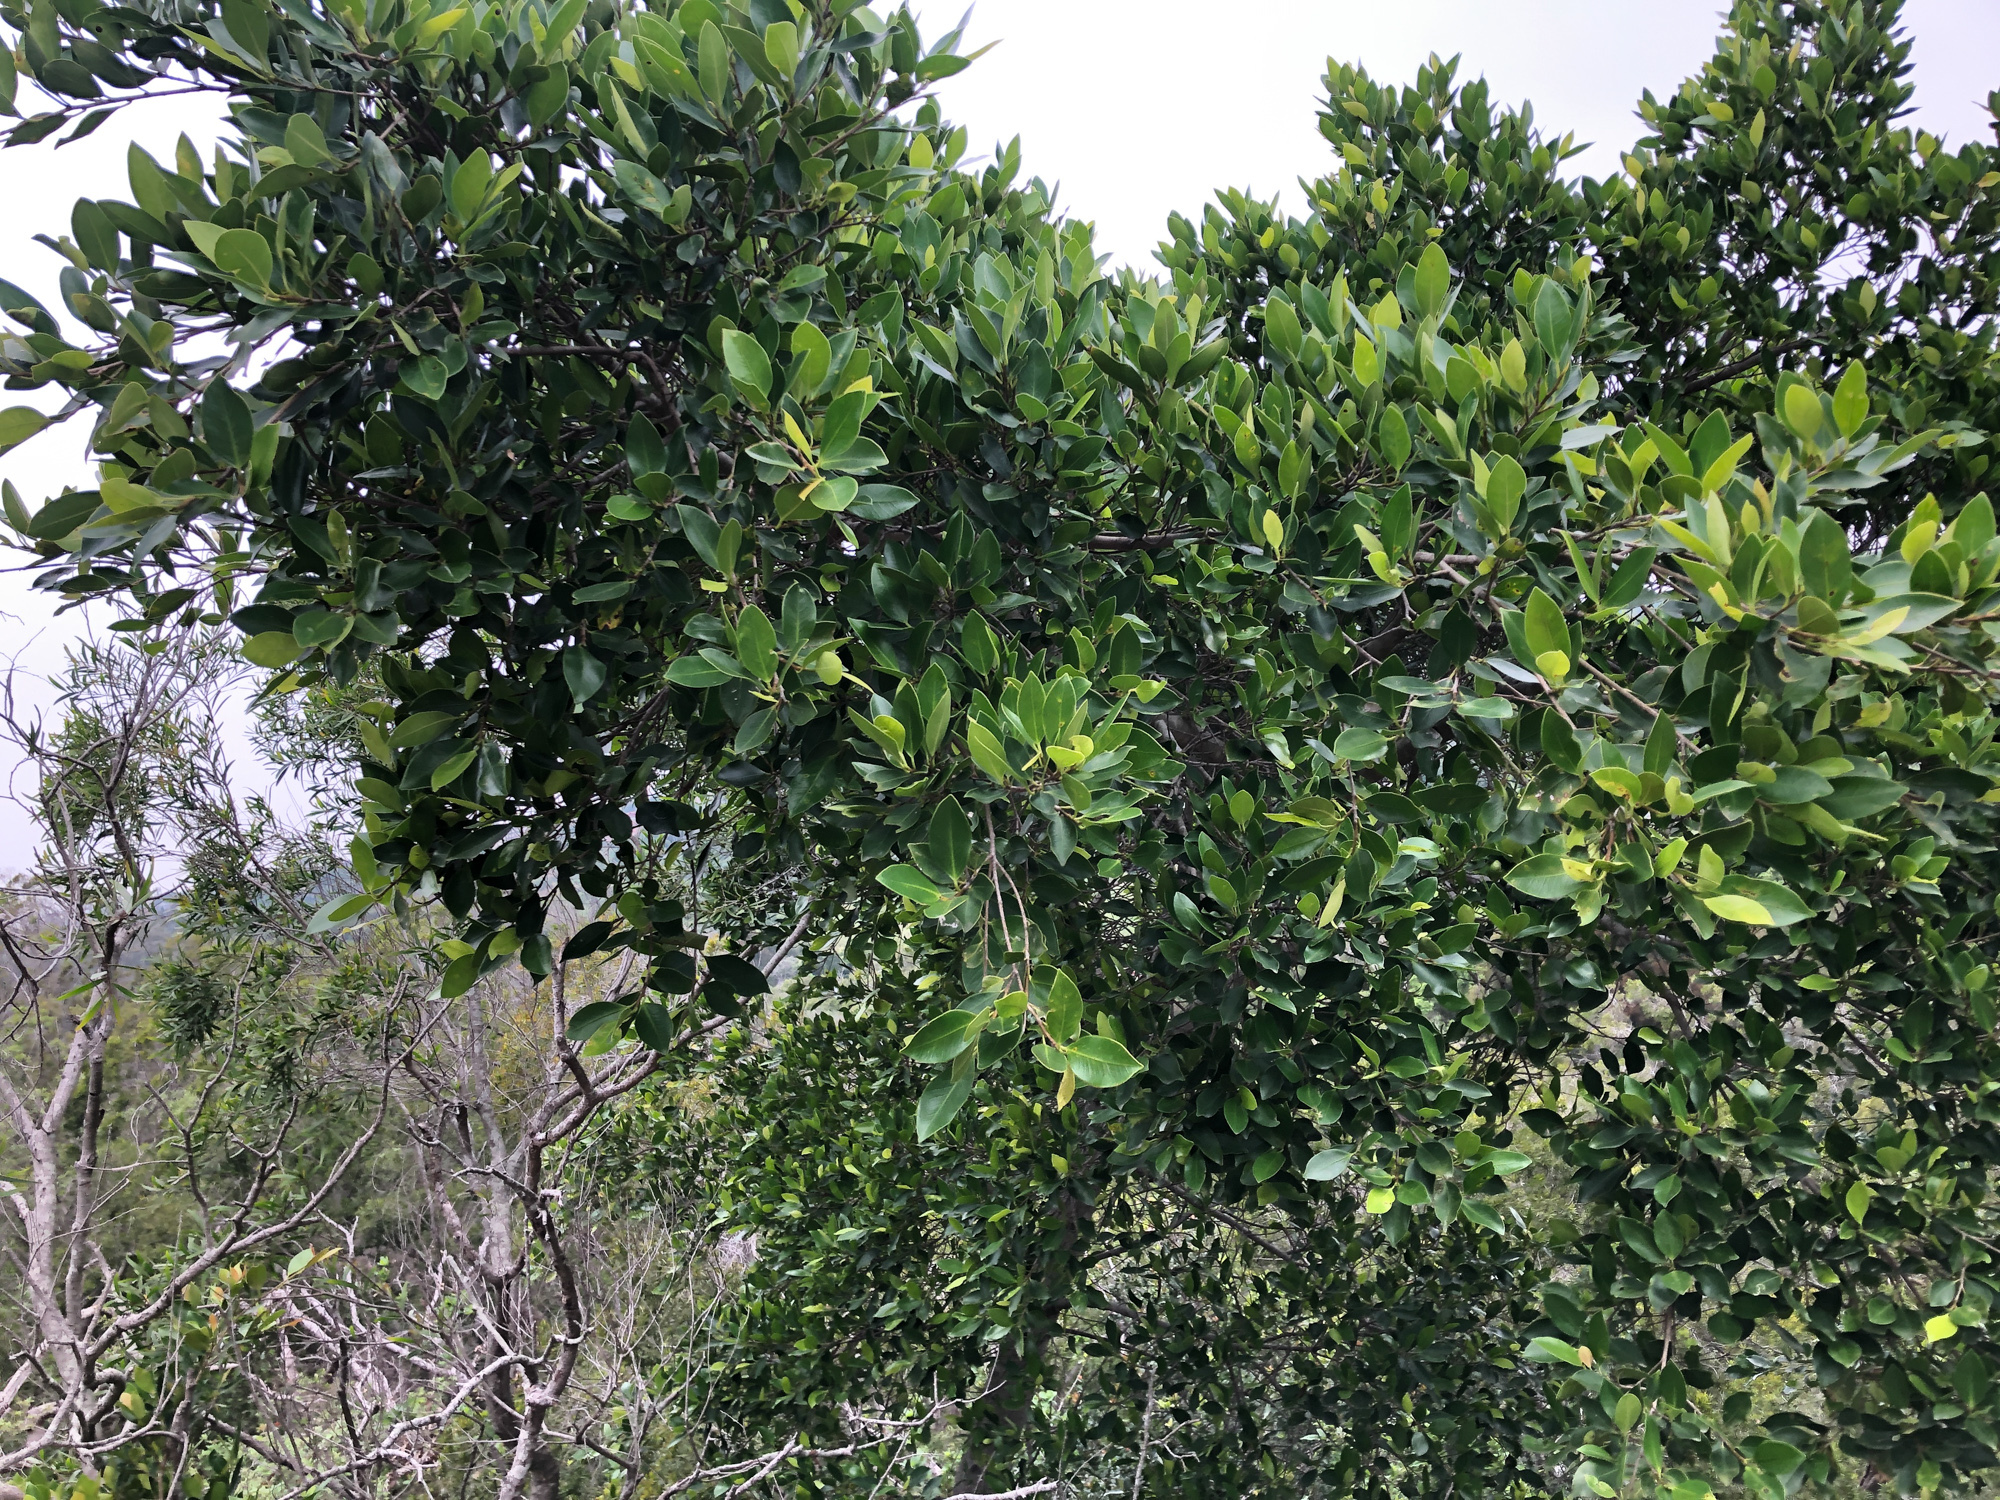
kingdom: Plantae
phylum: Tracheophyta
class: Magnoliopsida
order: Rosales
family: Moraceae
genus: Ficus
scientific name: Ficus microcarpa
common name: Chinese banyan
